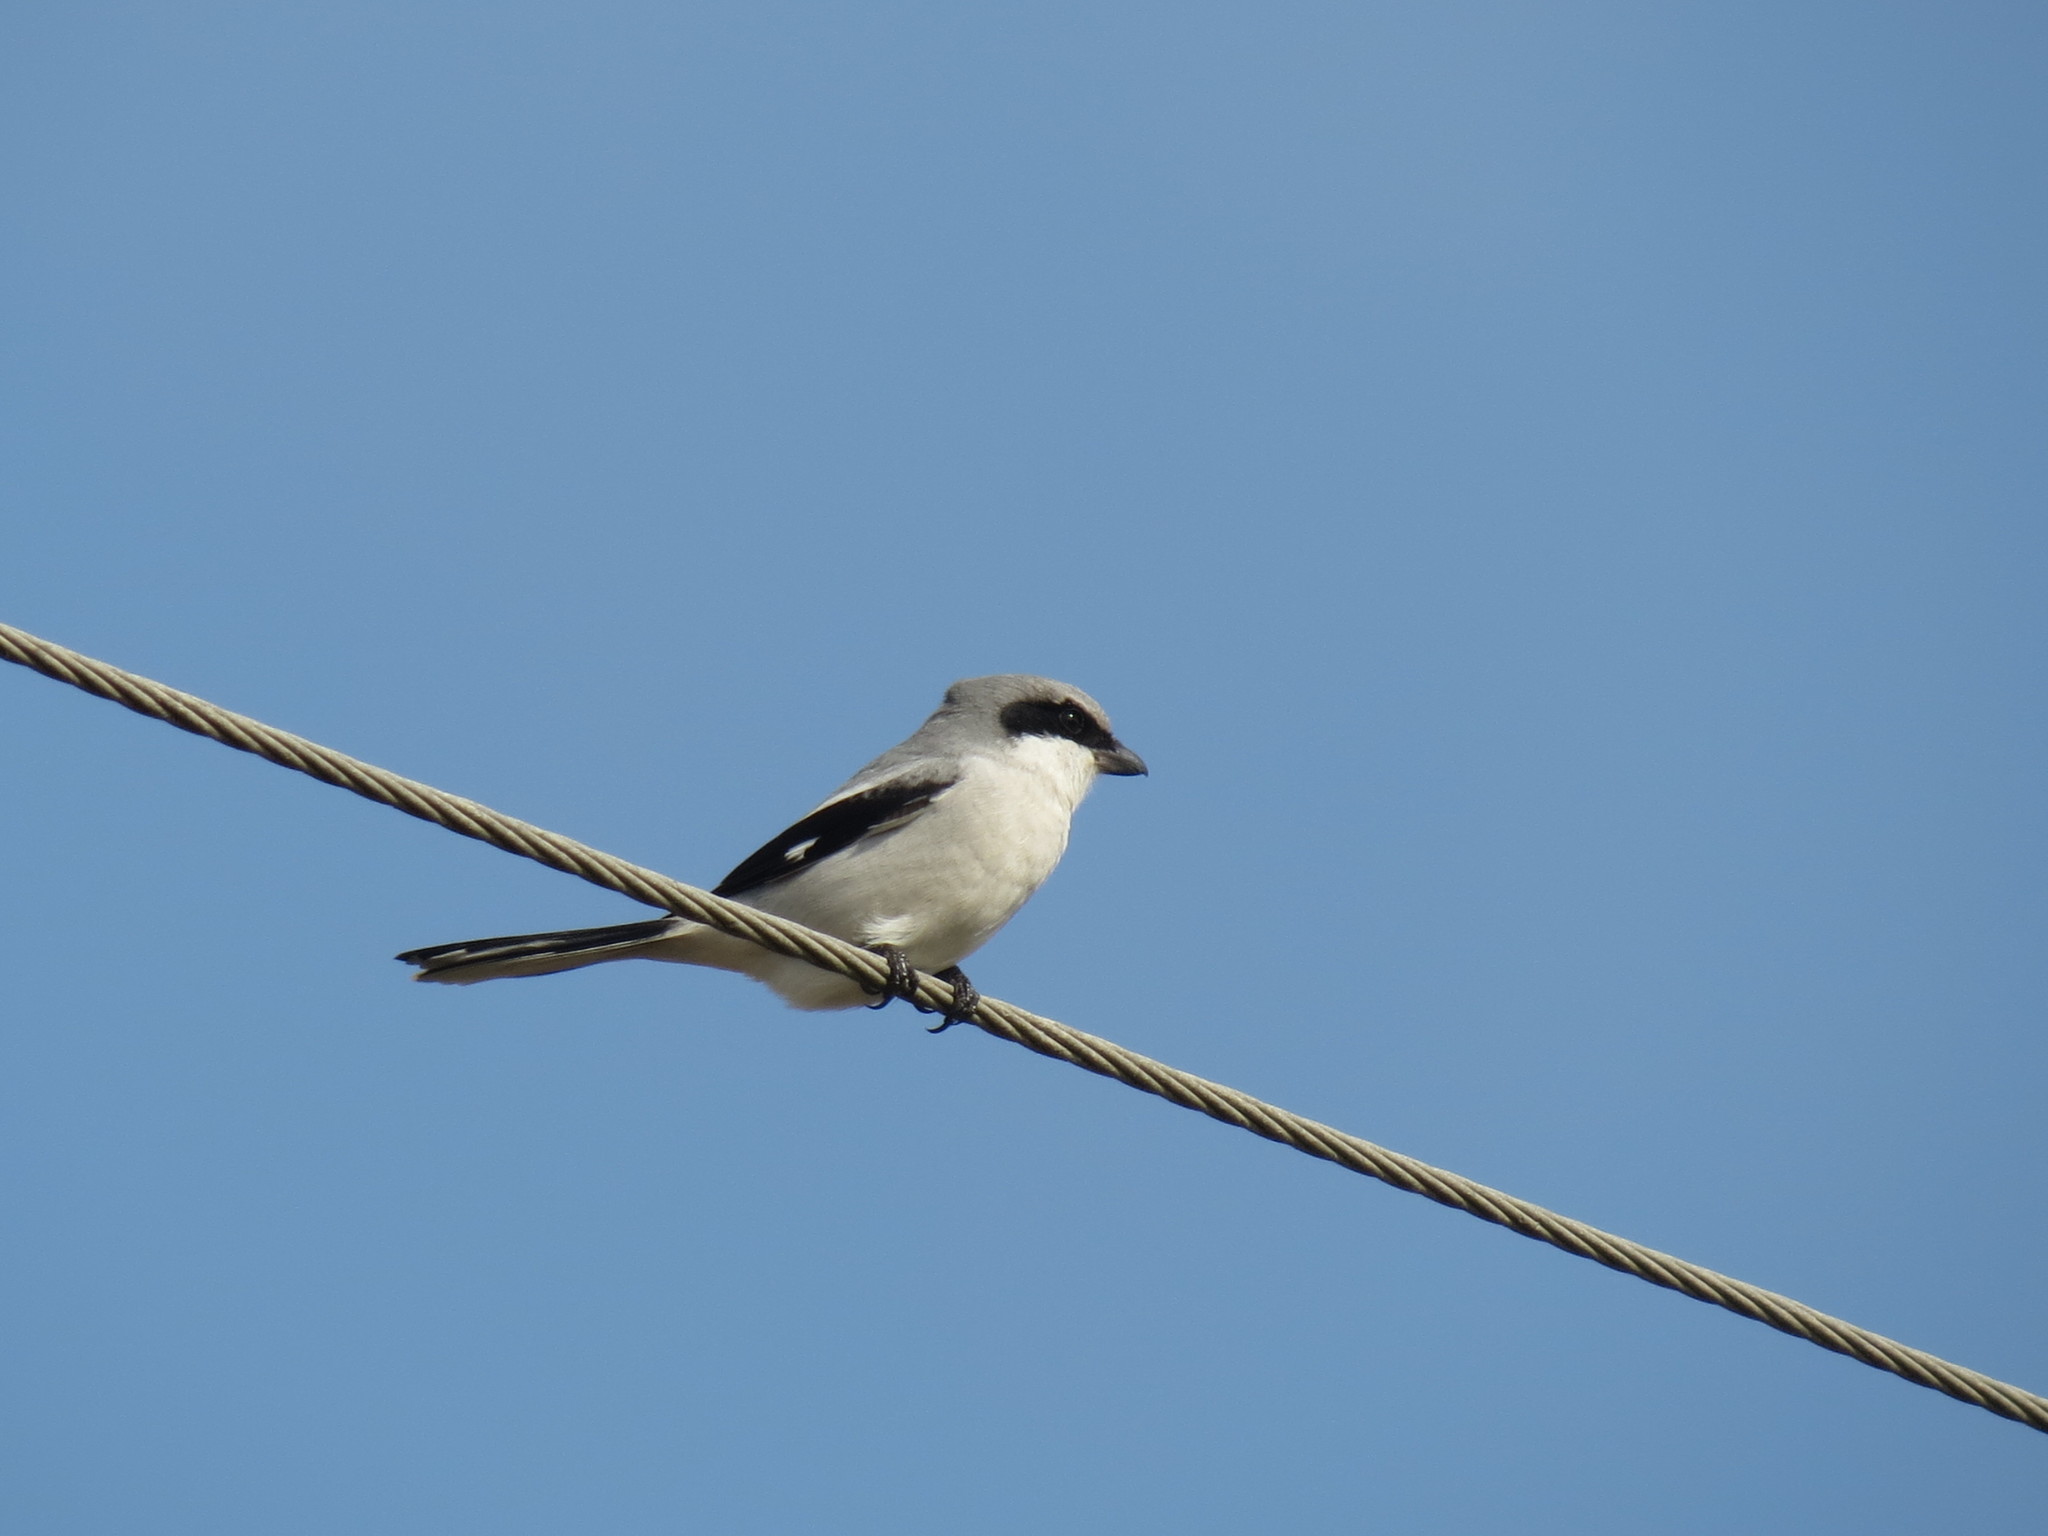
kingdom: Animalia
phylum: Chordata
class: Aves
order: Passeriformes
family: Laniidae
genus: Lanius
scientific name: Lanius ludovicianus
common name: Loggerhead shrike
